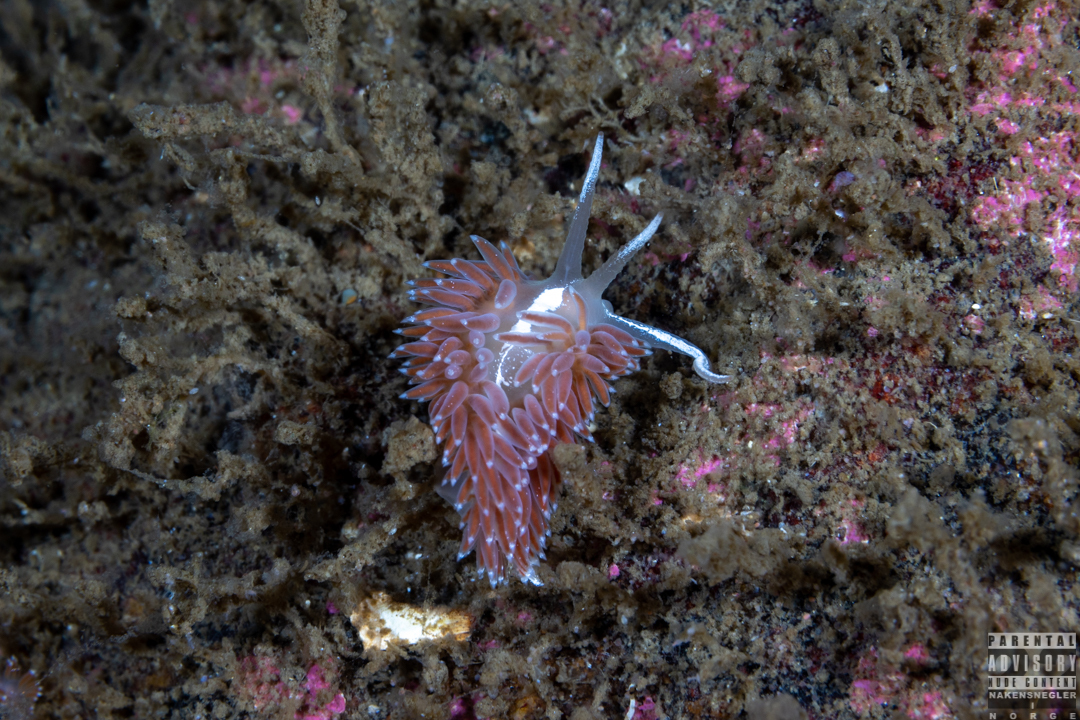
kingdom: Animalia
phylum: Mollusca
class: Gastropoda
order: Nudibranchia
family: Coryphellidae
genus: Coryphella
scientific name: Coryphella monicae
